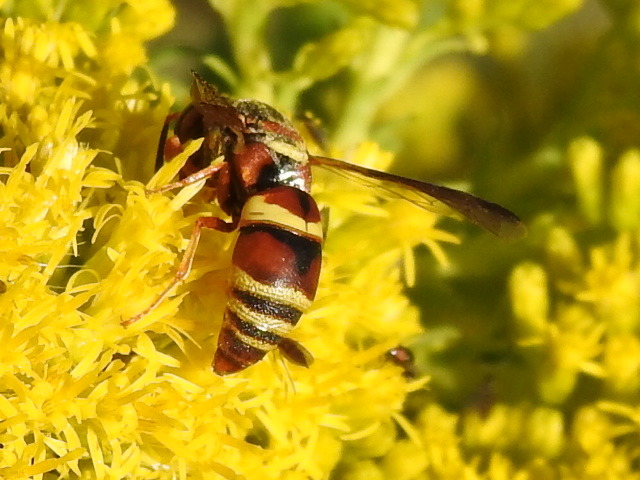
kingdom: Animalia
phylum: Arthropoda
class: Insecta
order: Hymenoptera
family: Eumenidae
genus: Euodynerus
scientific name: Euodynerus hidalgo
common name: Wasp
